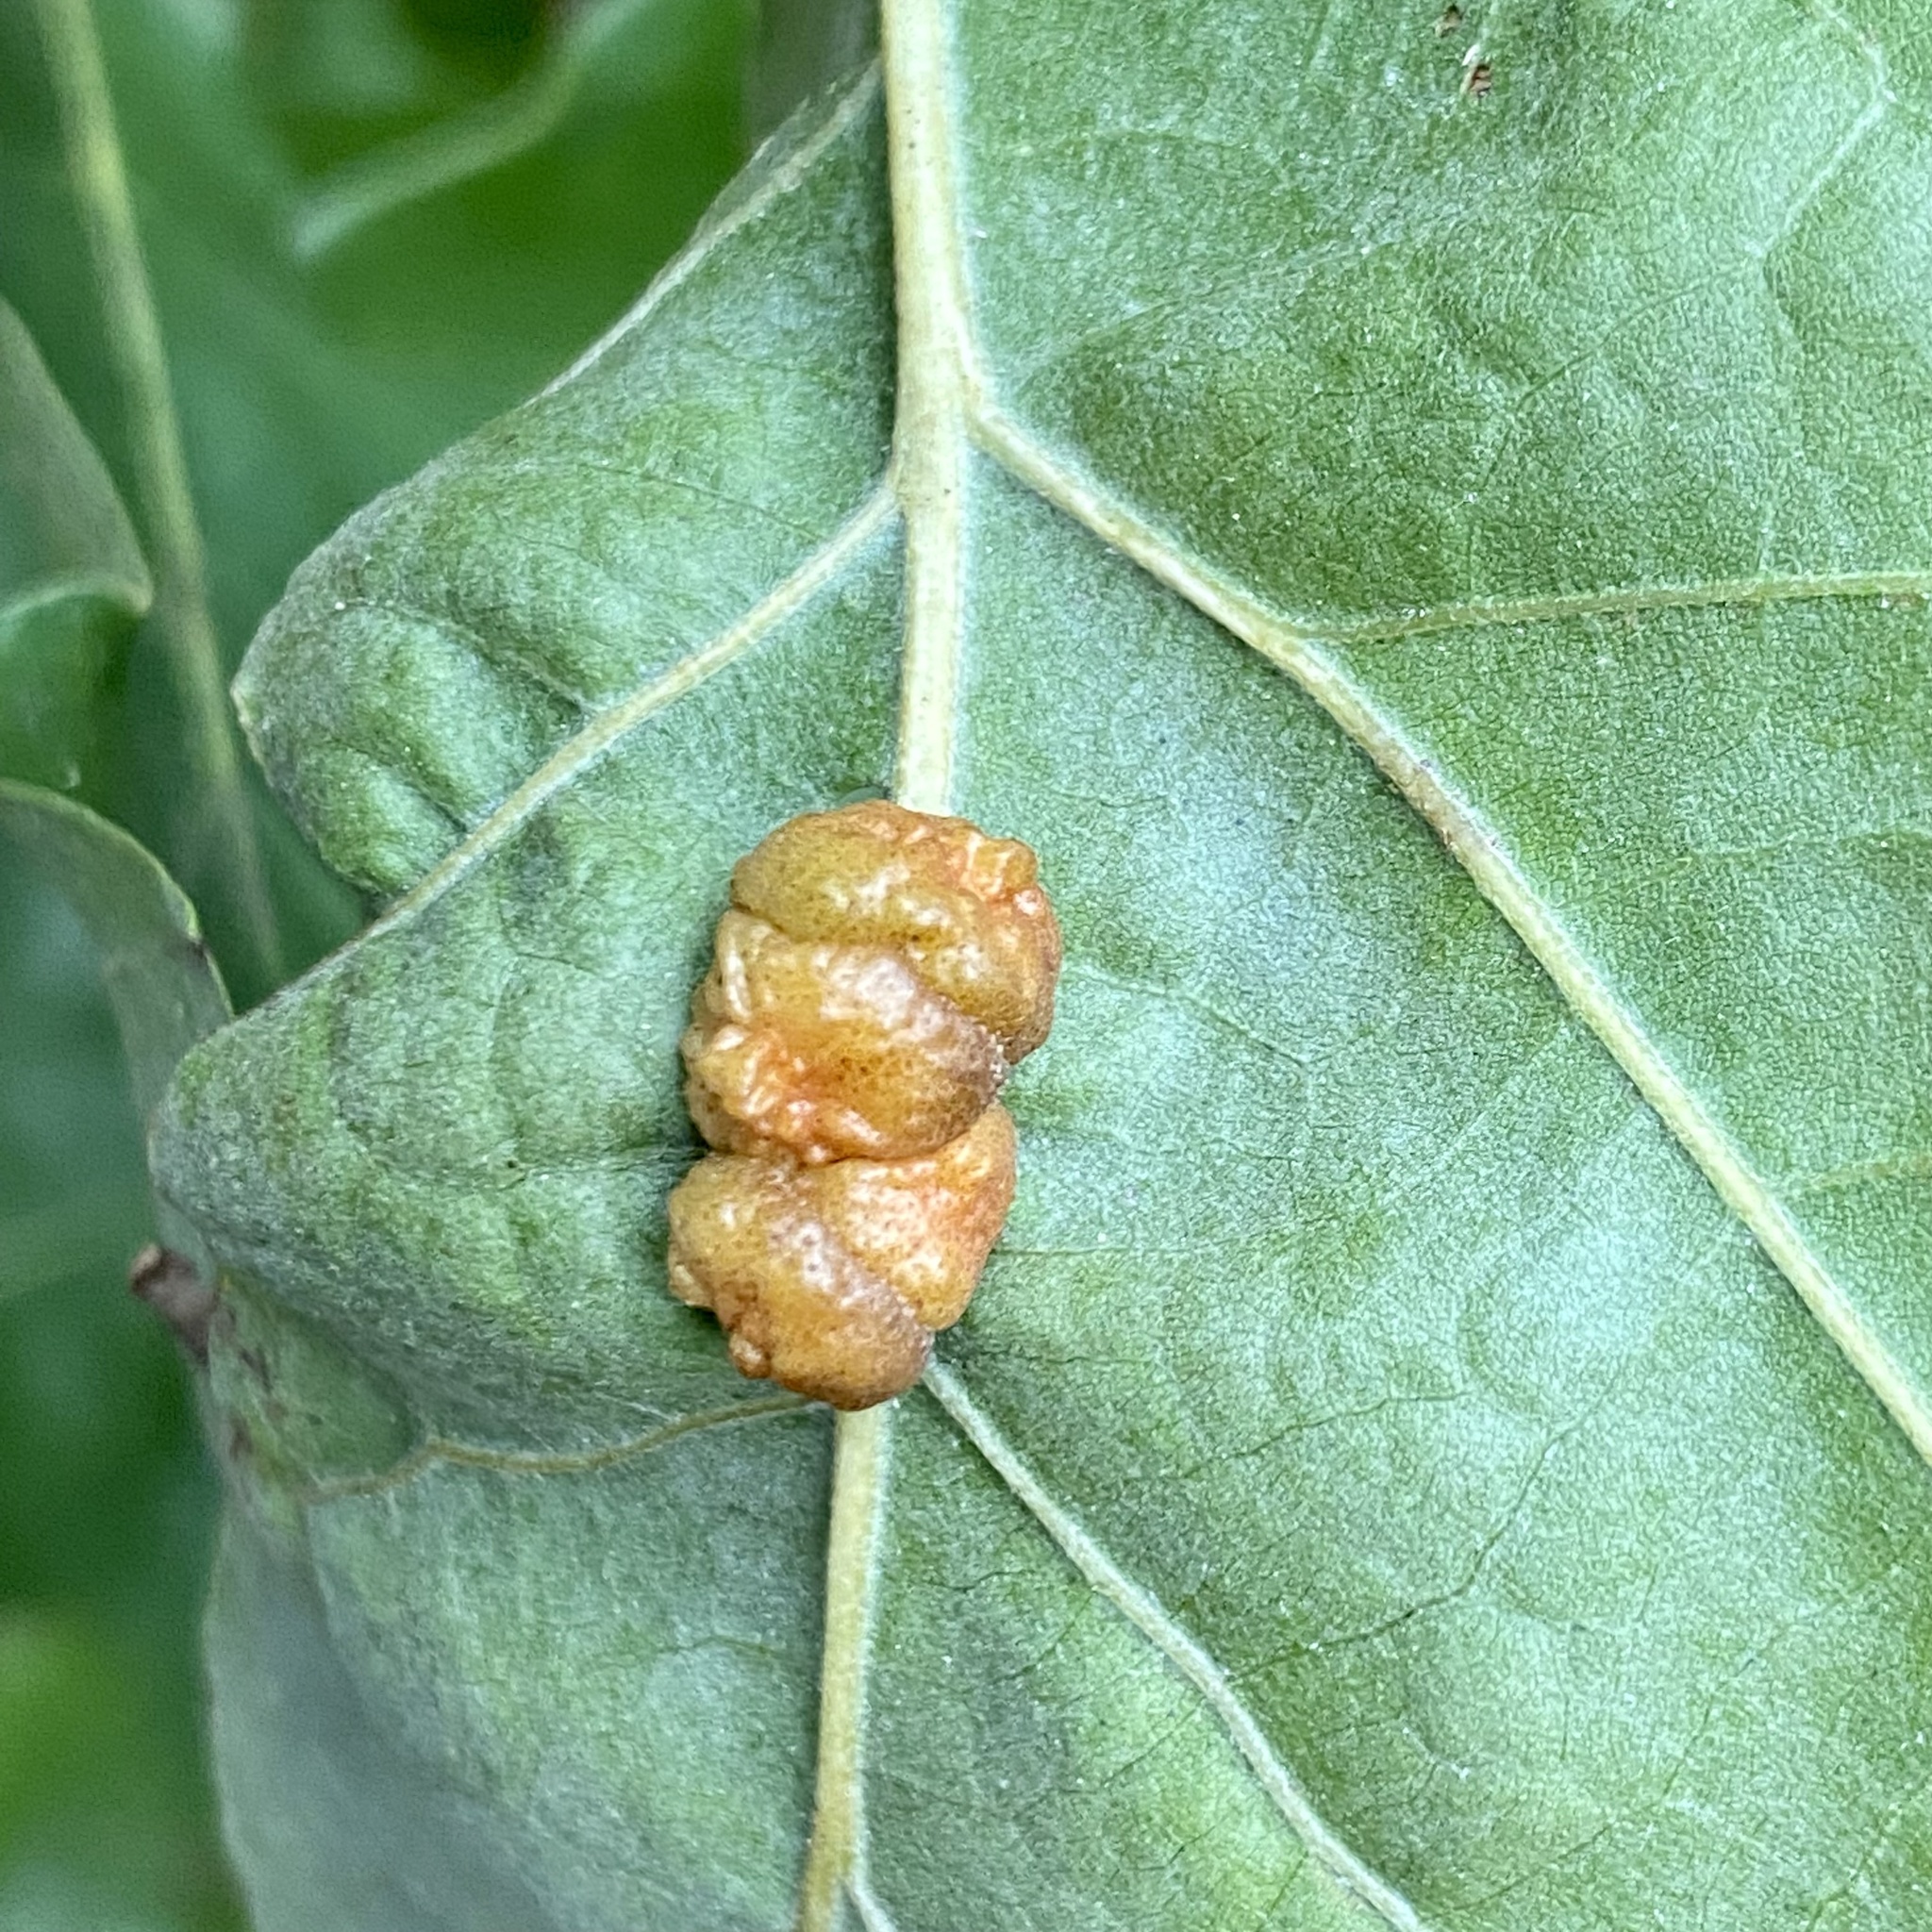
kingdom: Animalia
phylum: Arthropoda
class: Insecta
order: Hymenoptera
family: Cynipidae
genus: Andricus
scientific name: Andricus
